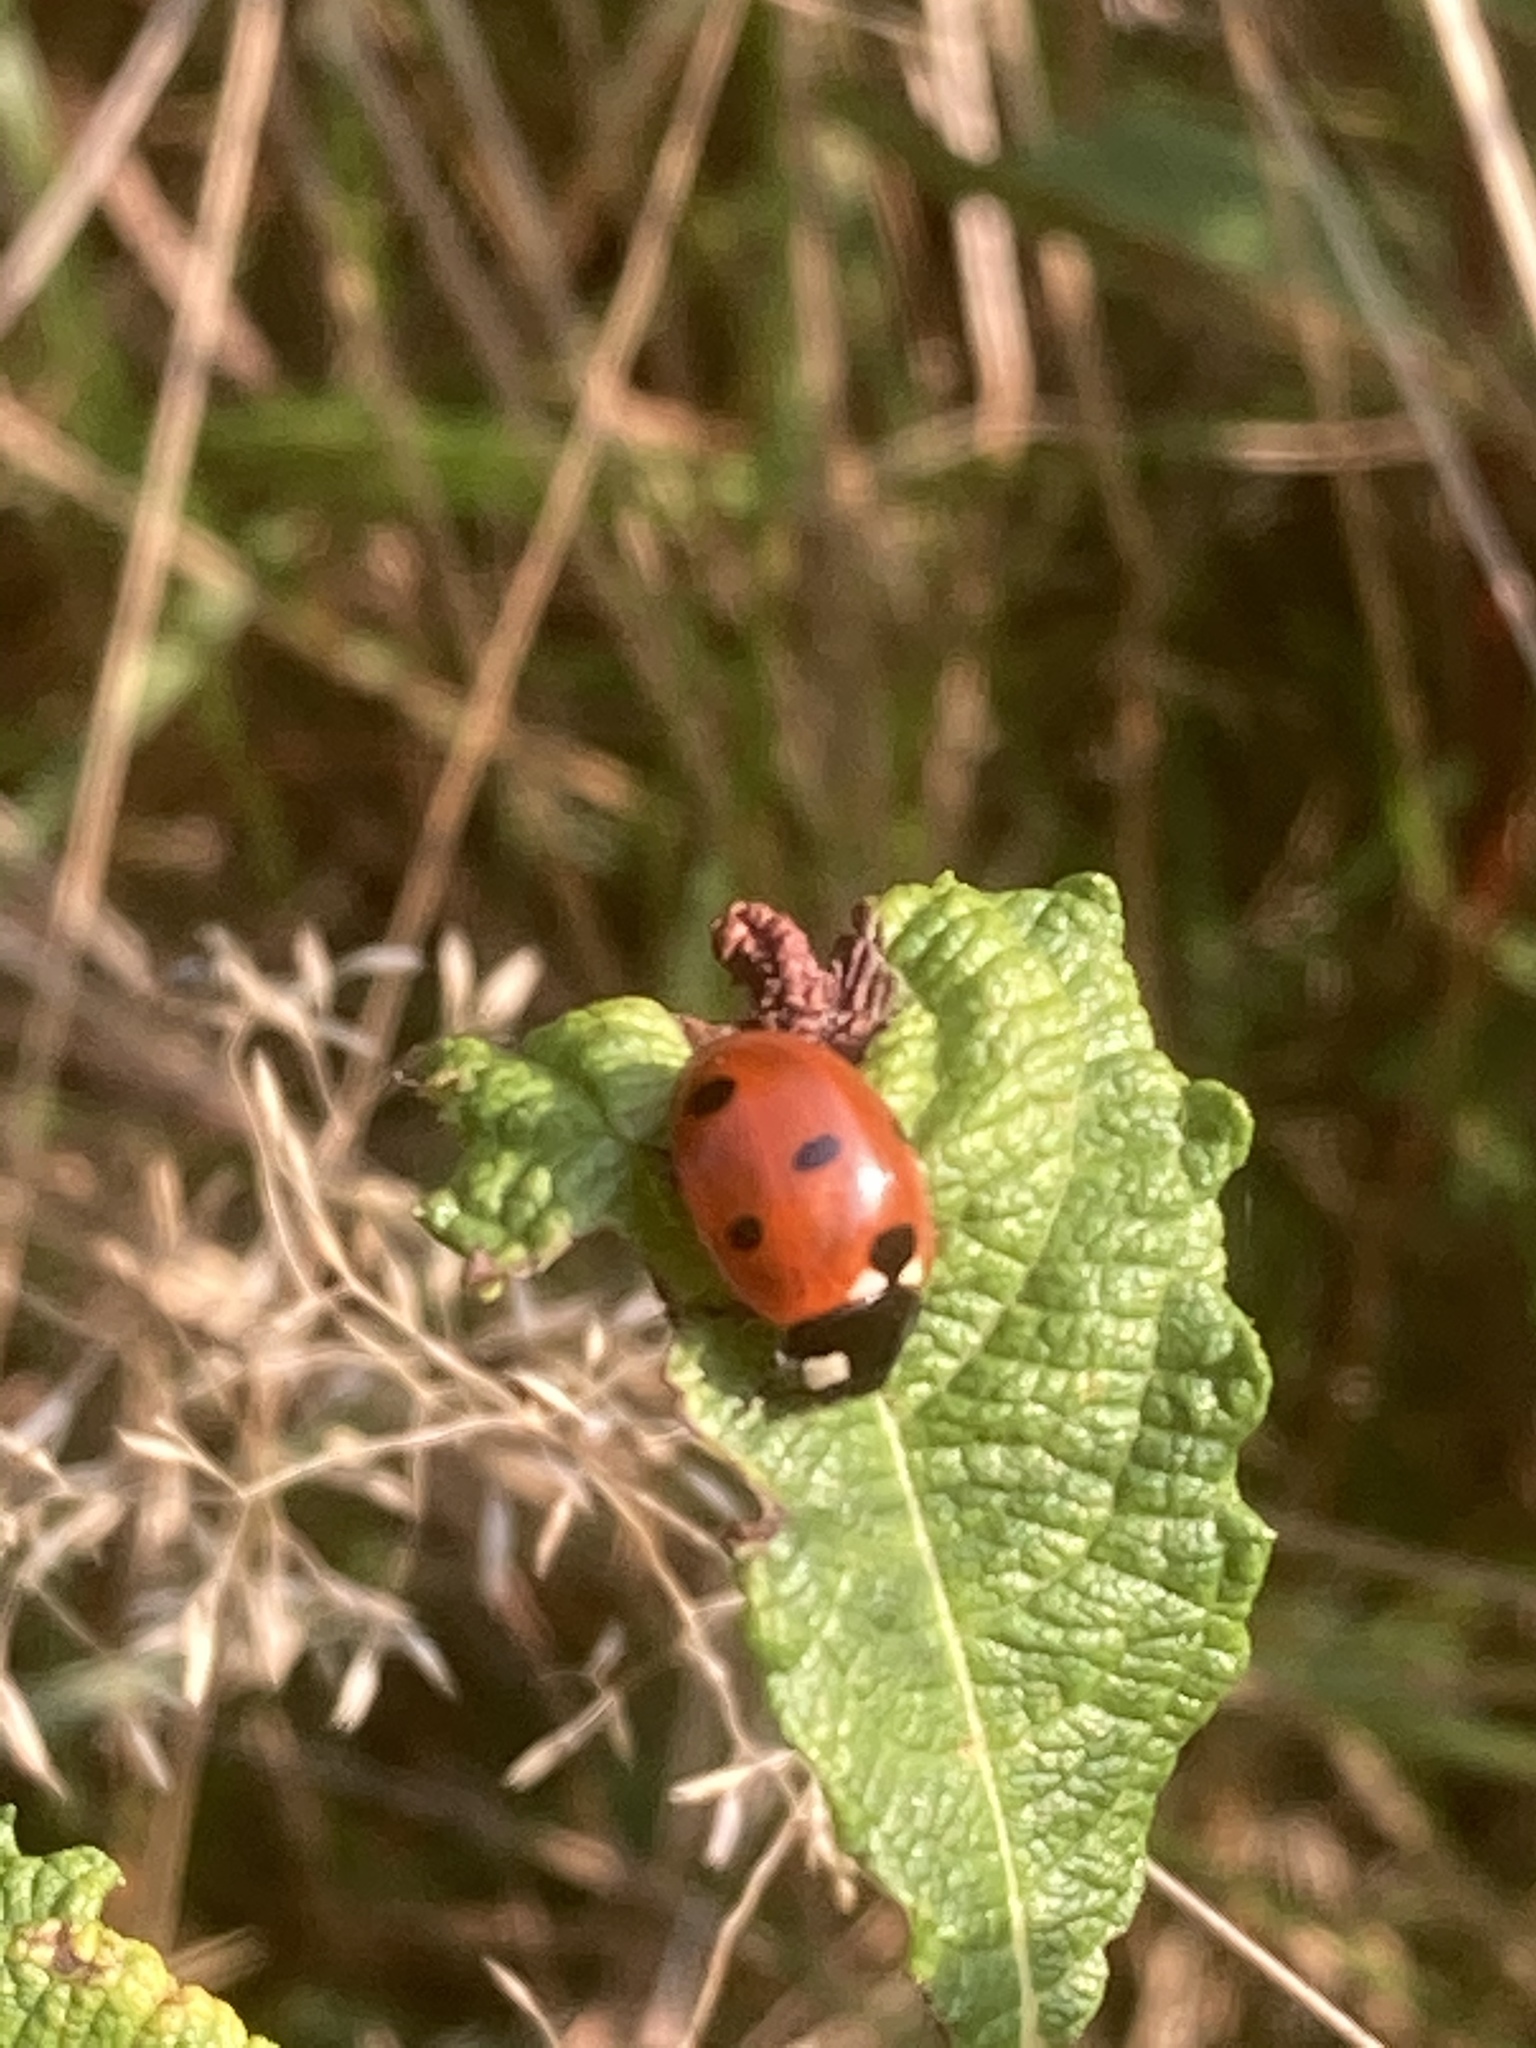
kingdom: Animalia
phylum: Arthropoda
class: Insecta
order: Coleoptera
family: Coccinellidae
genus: Coccinella
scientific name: Coccinella septempunctata
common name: Sevenspotted lady beetle
